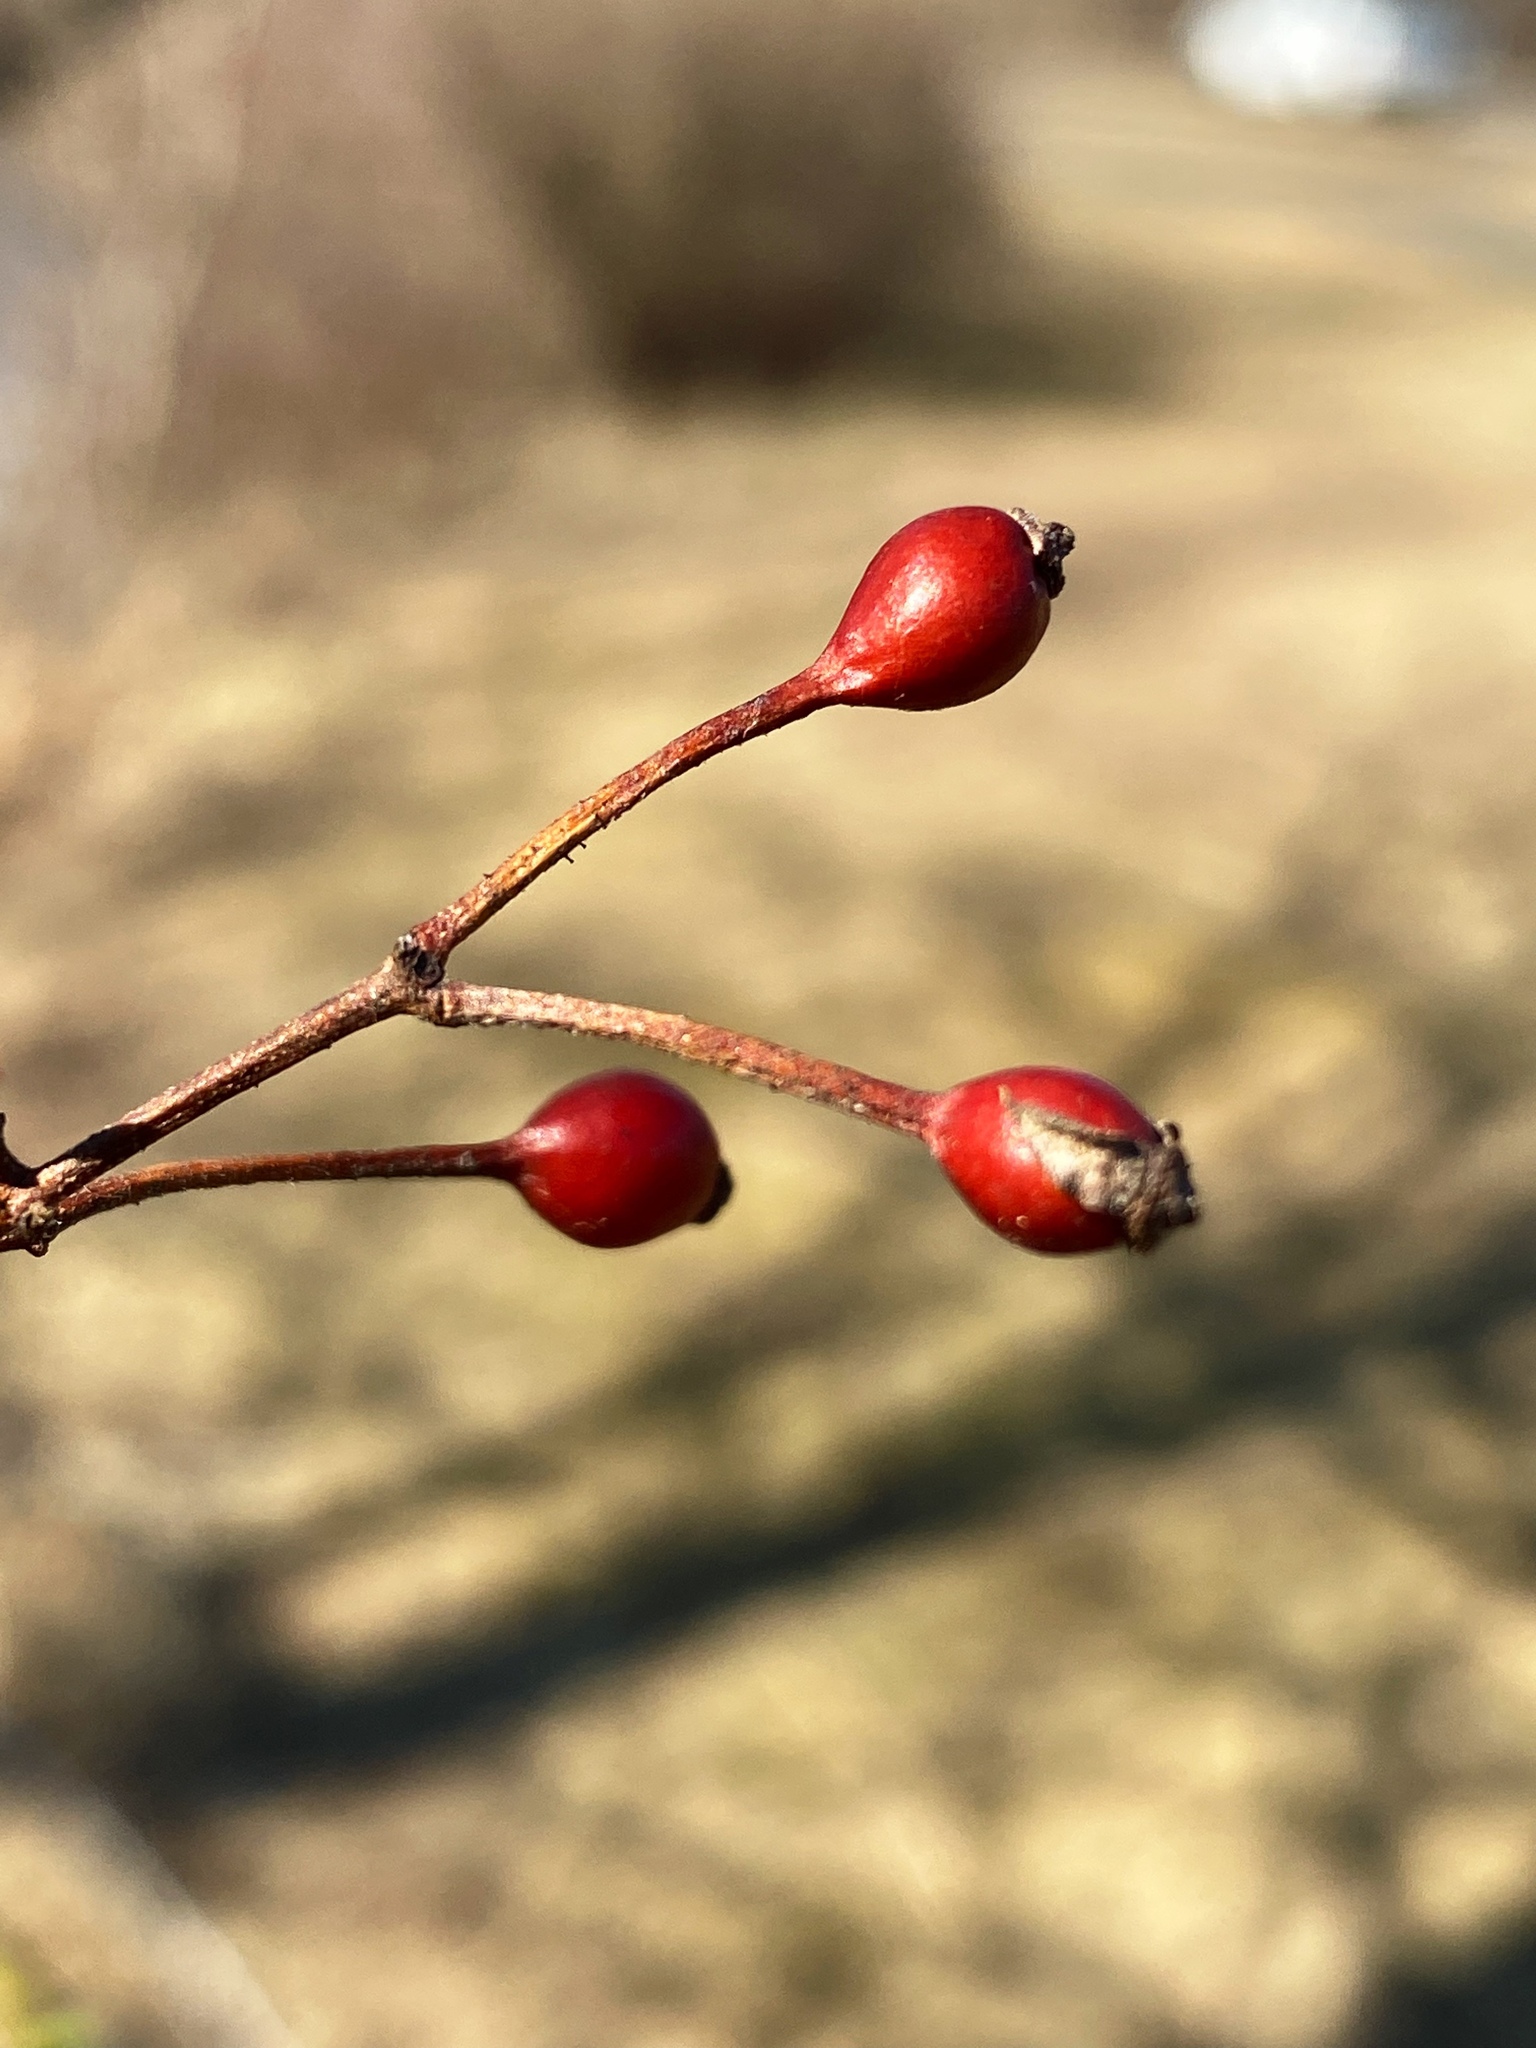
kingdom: Plantae
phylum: Tracheophyta
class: Magnoliopsida
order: Rosales
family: Rosaceae
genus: Rosa
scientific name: Rosa multiflora
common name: Multiflora rose
